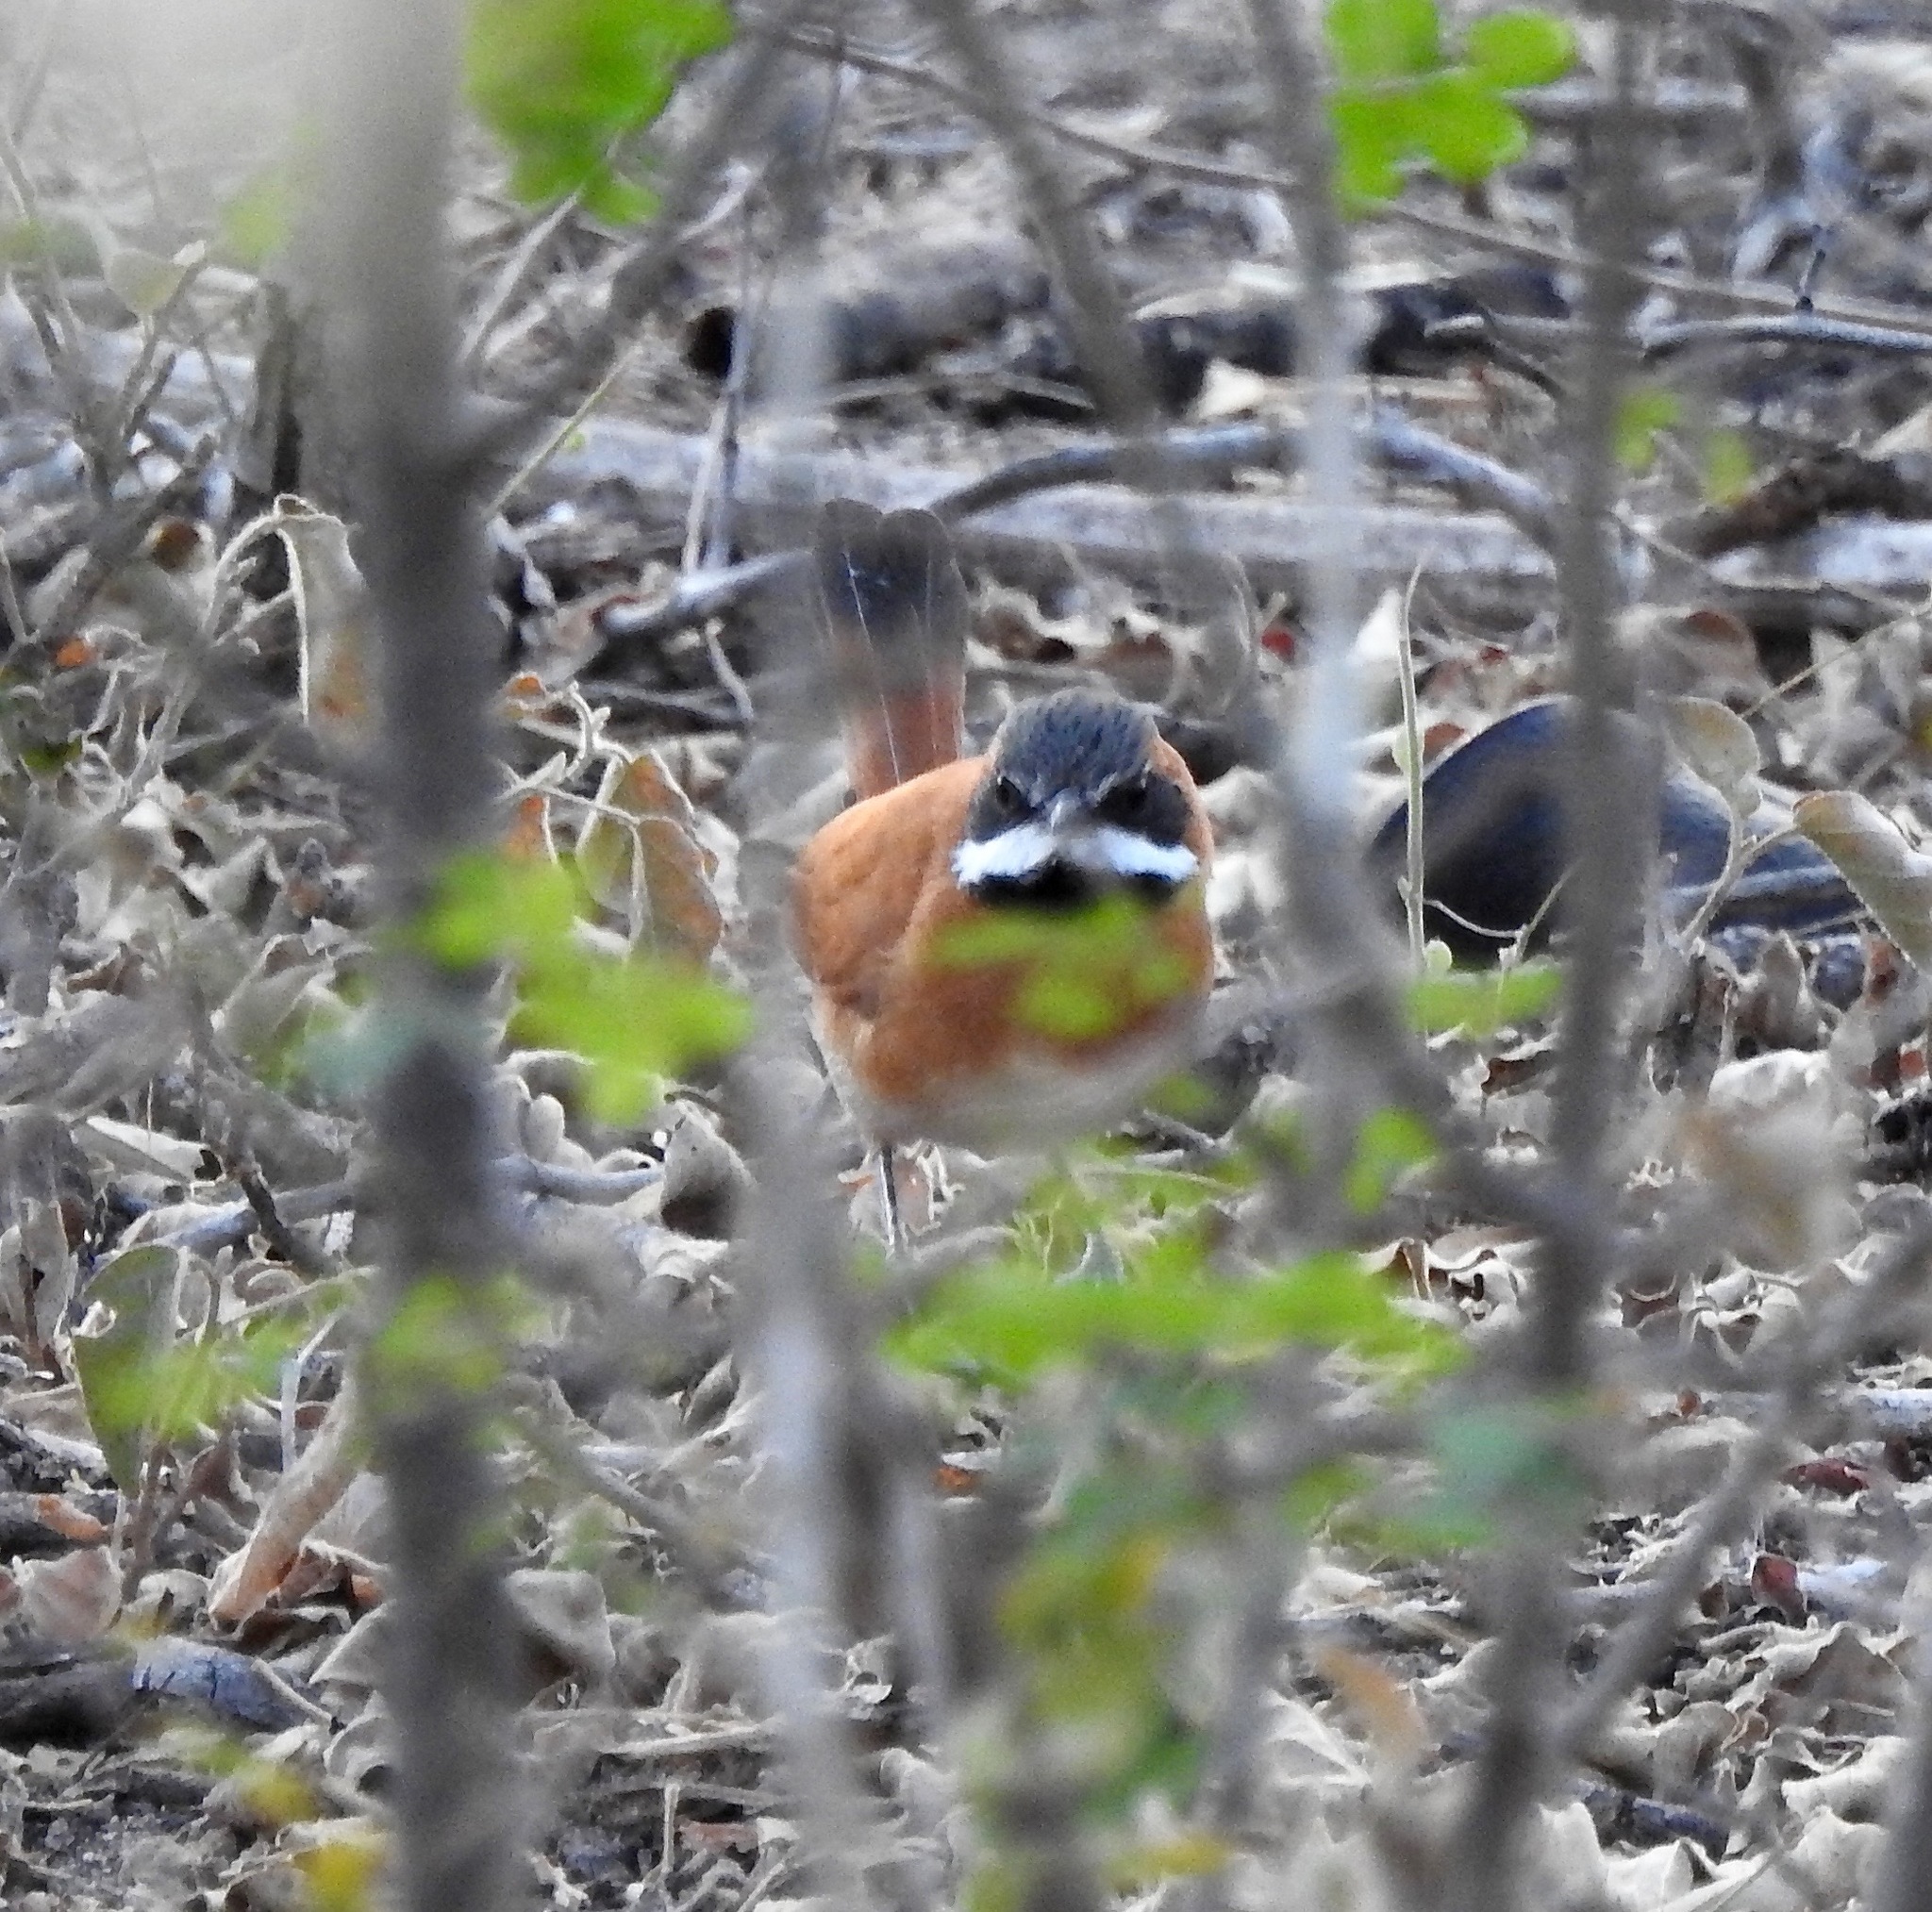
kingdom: Animalia
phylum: Chordata
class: Aves
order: Passeriformes
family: Furnariidae
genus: Synallaxis
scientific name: Synallaxis candei
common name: White-whiskered spinetail
